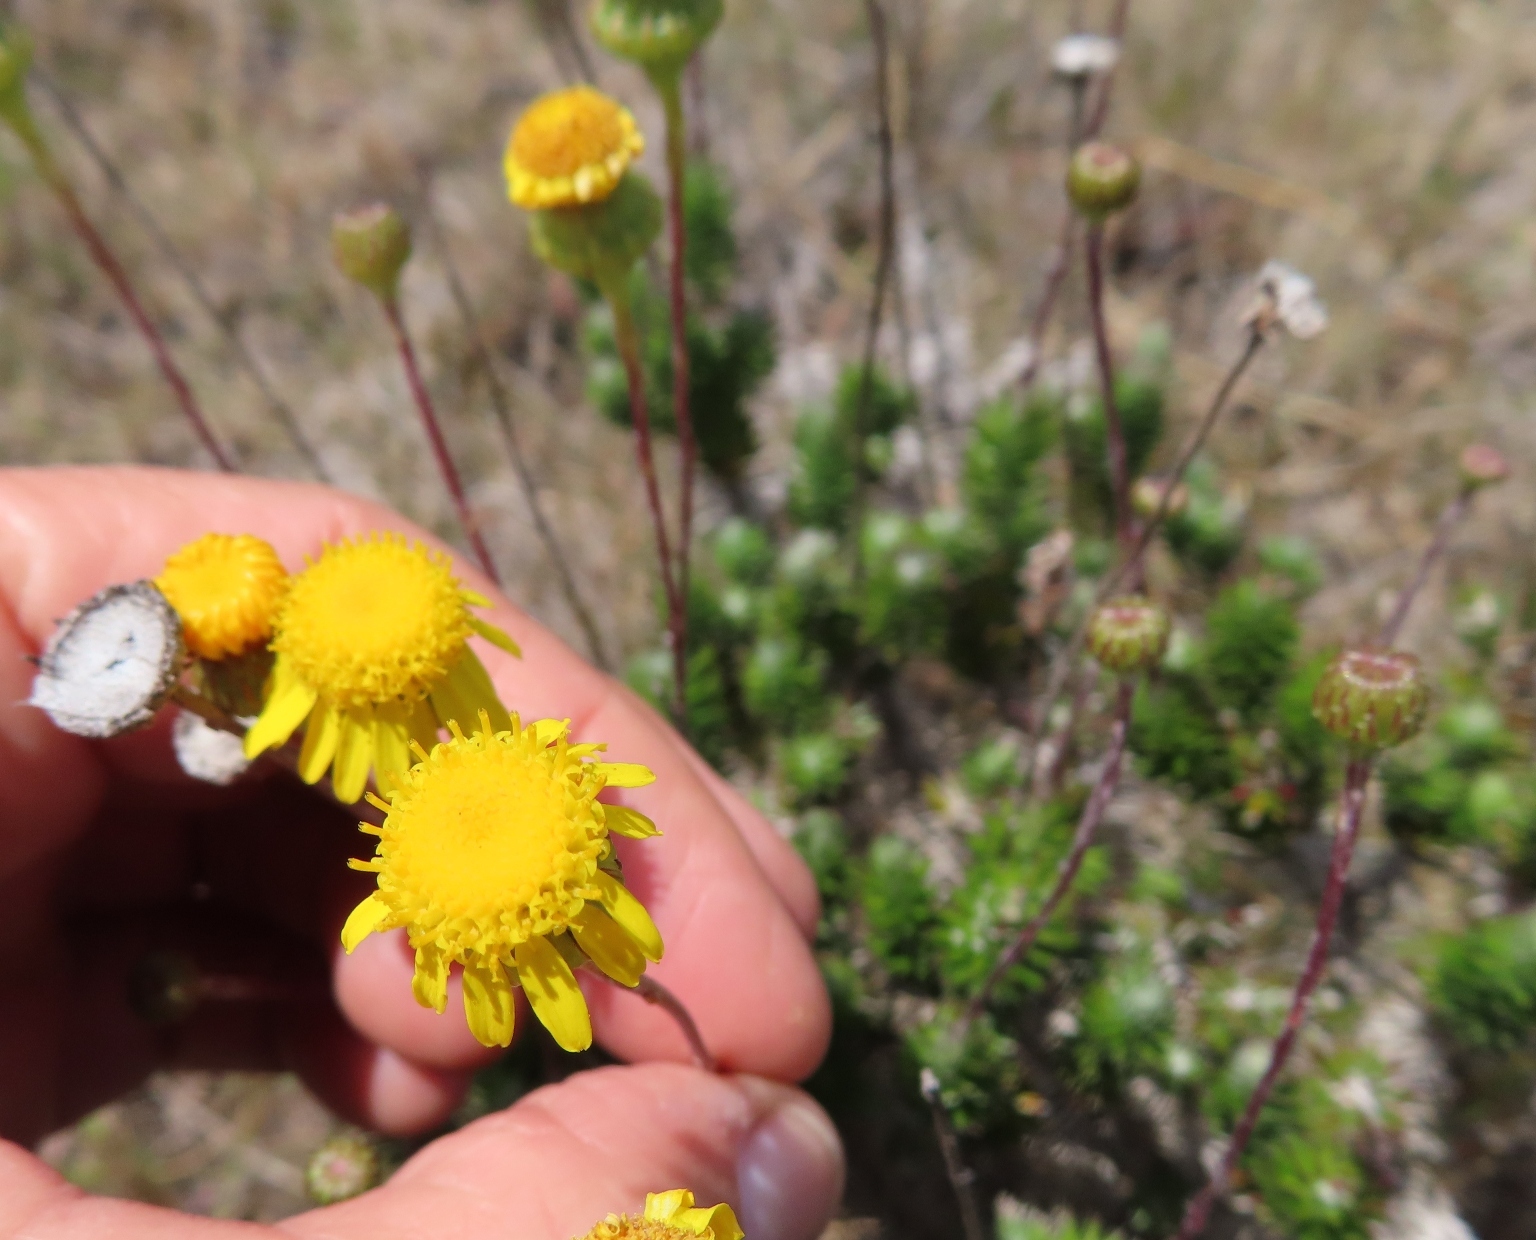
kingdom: Plantae
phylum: Tracheophyta
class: Magnoliopsida
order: Asterales
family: Asteraceae
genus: Senecio
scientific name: Senecio pillansii
